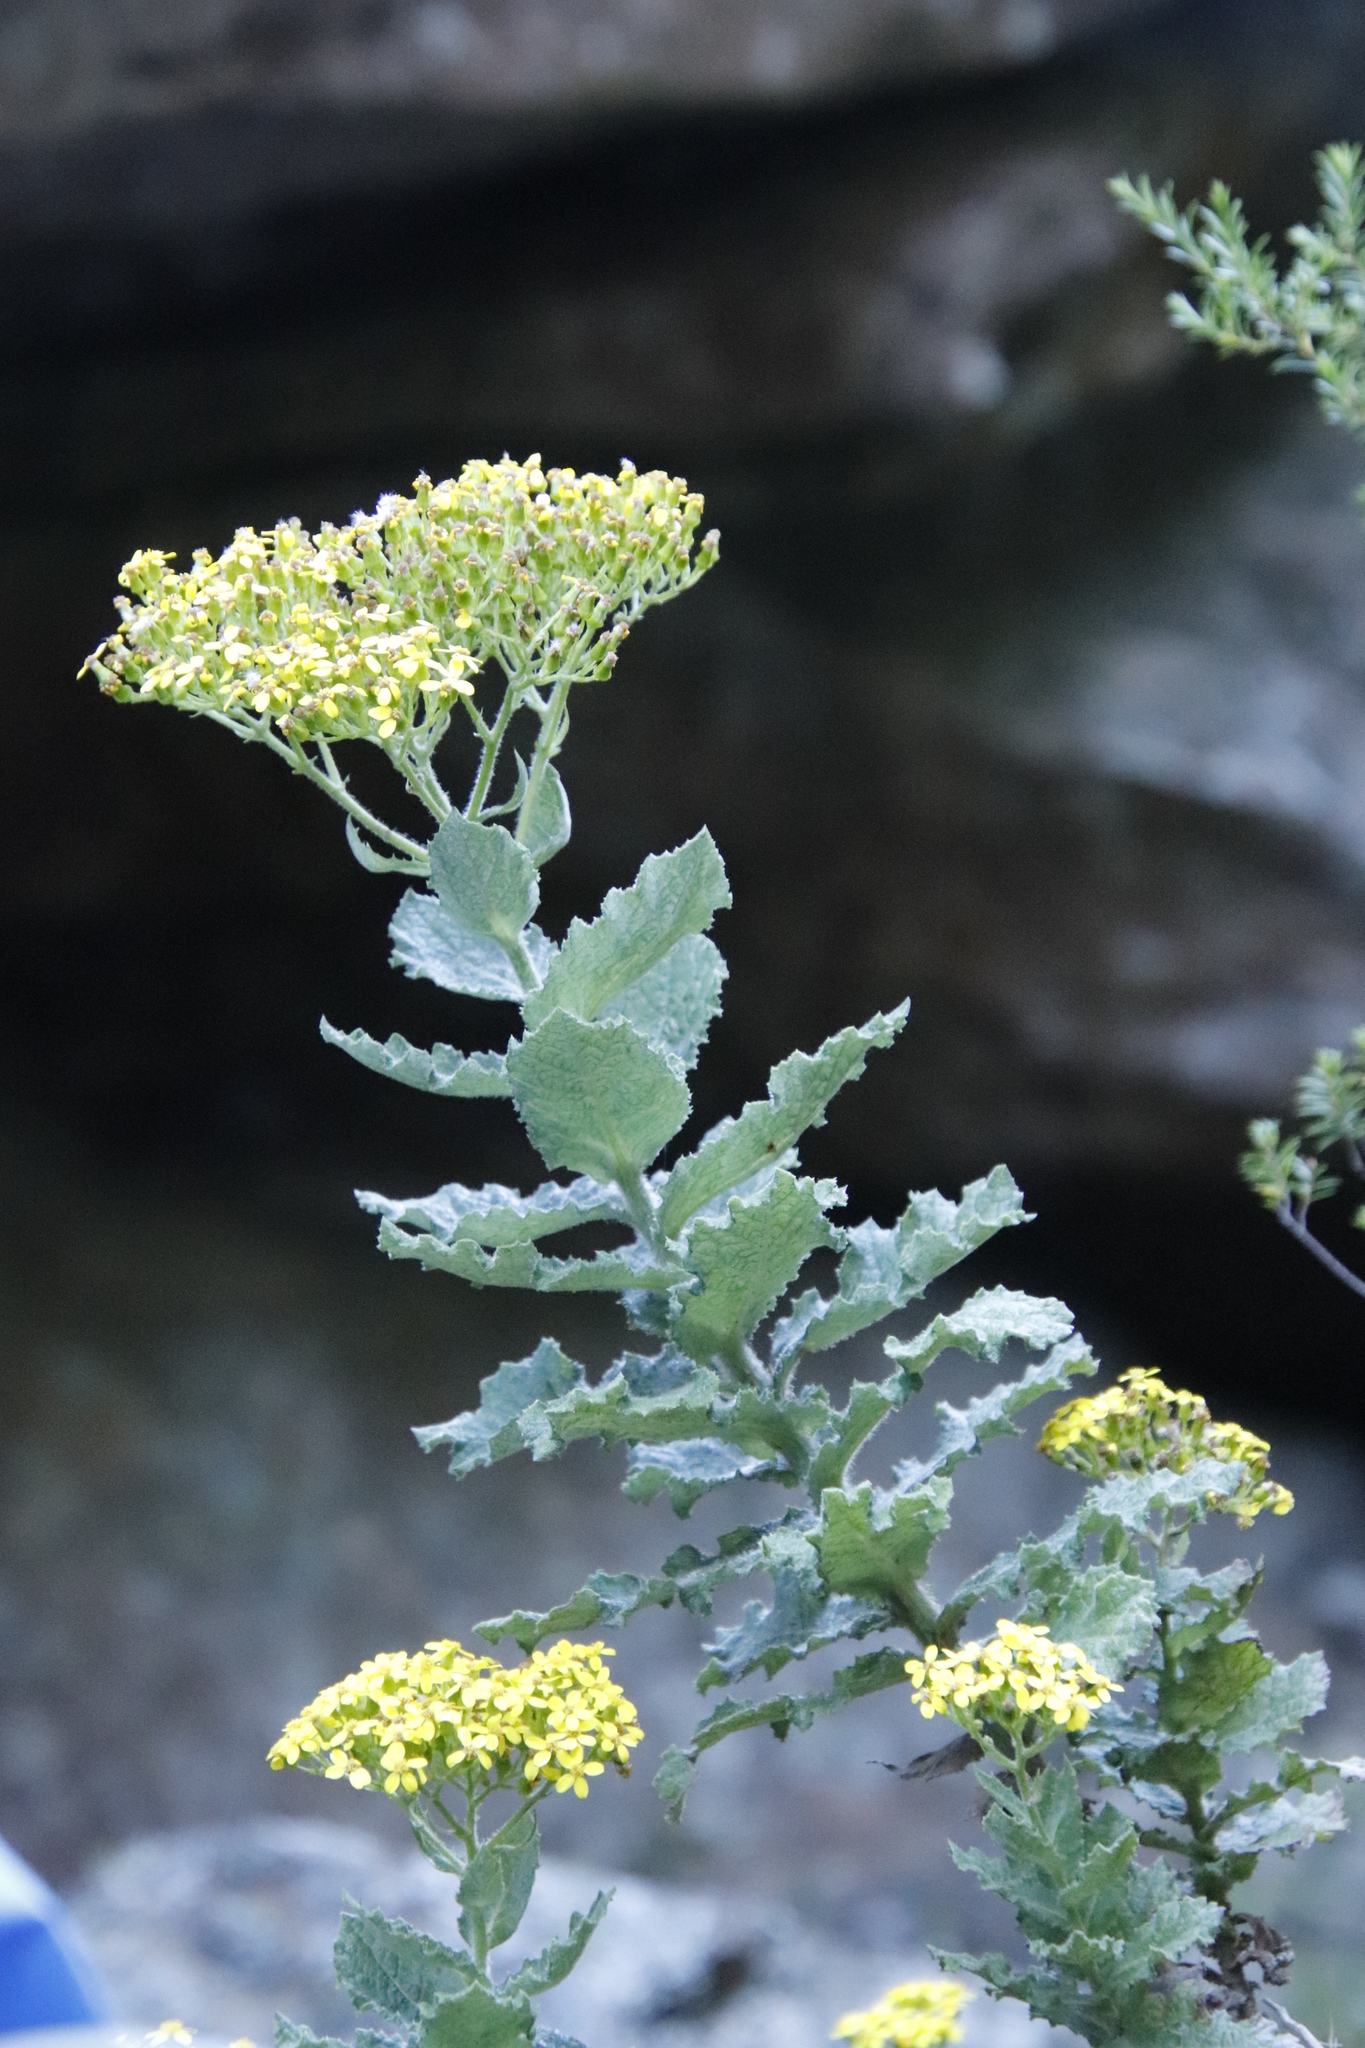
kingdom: Plantae
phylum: Tracheophyta
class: Magnoliopsida
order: Asterales
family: Asteraceae
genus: Senecio
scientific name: Senecio rigidus
